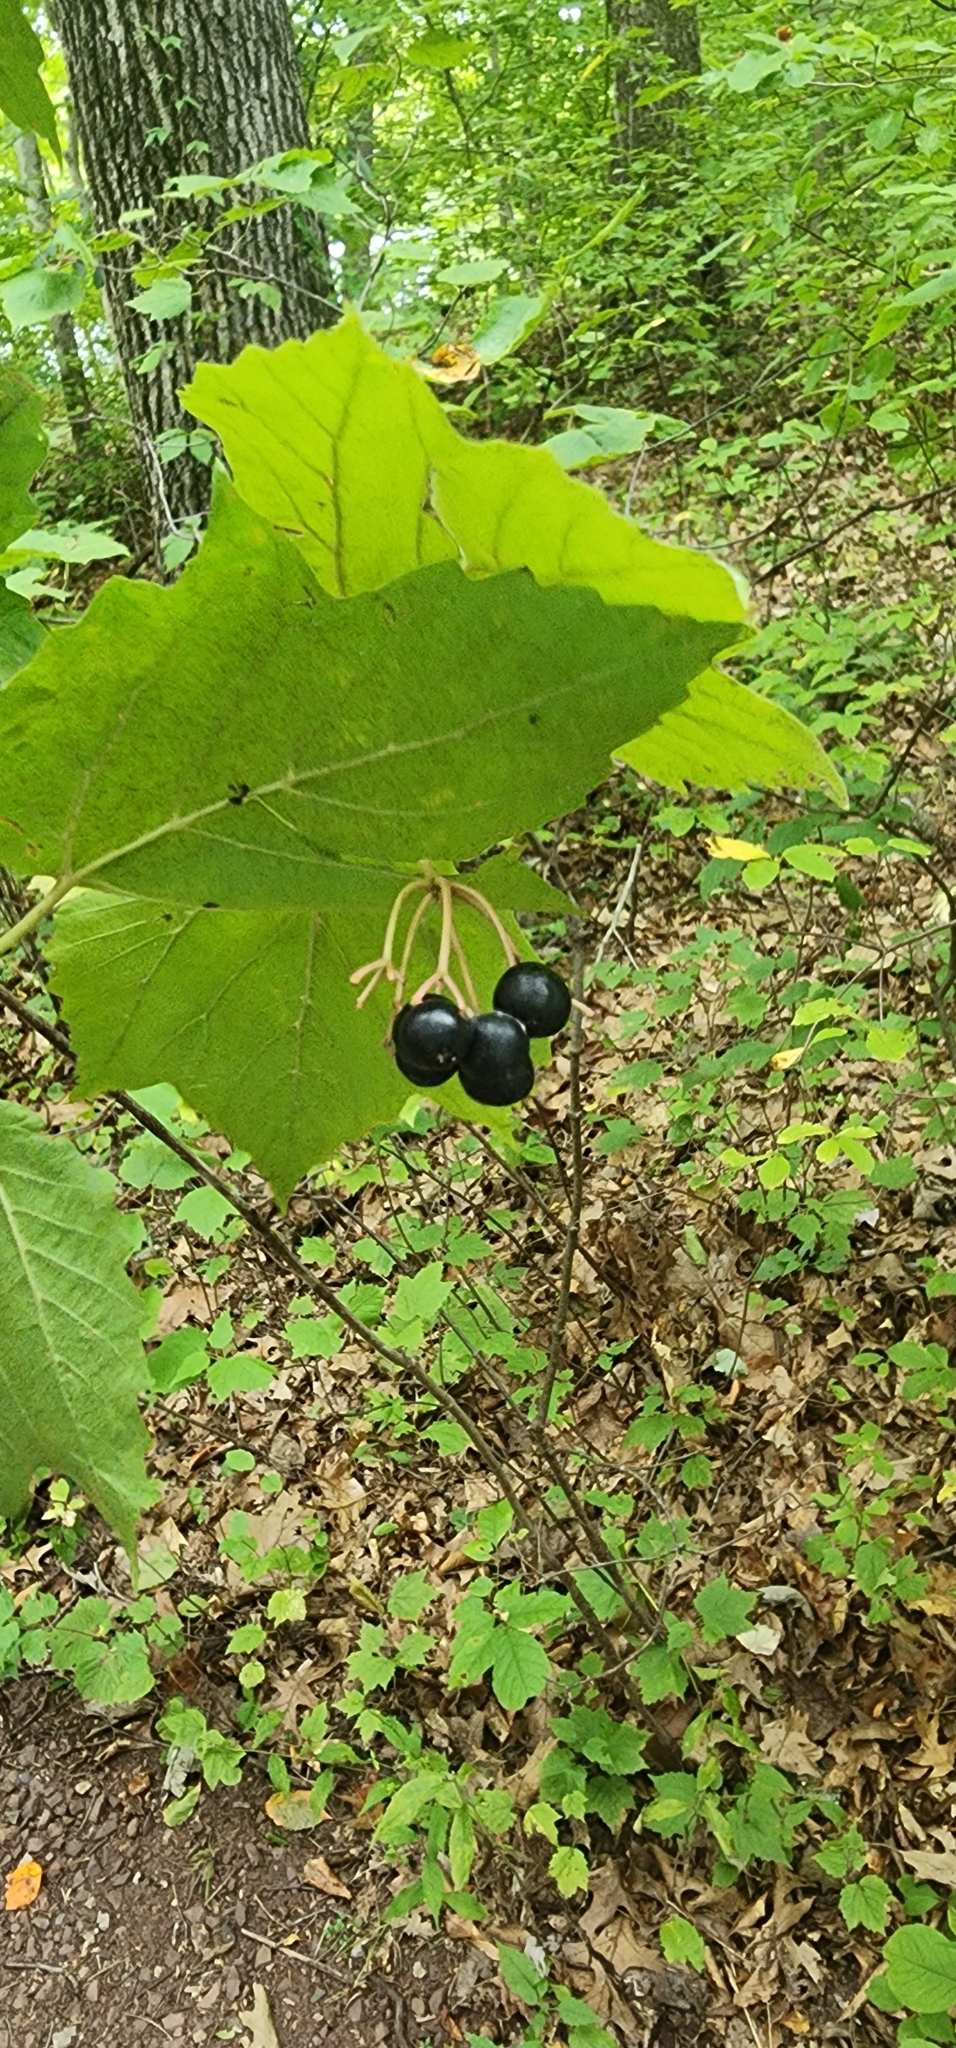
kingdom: Plantae
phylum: Tracheophyta
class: Magnoliopsida
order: Dipsacales
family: Viburnaceae
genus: Viburnum
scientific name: Viburnum acerifolium
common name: Dockmackie
